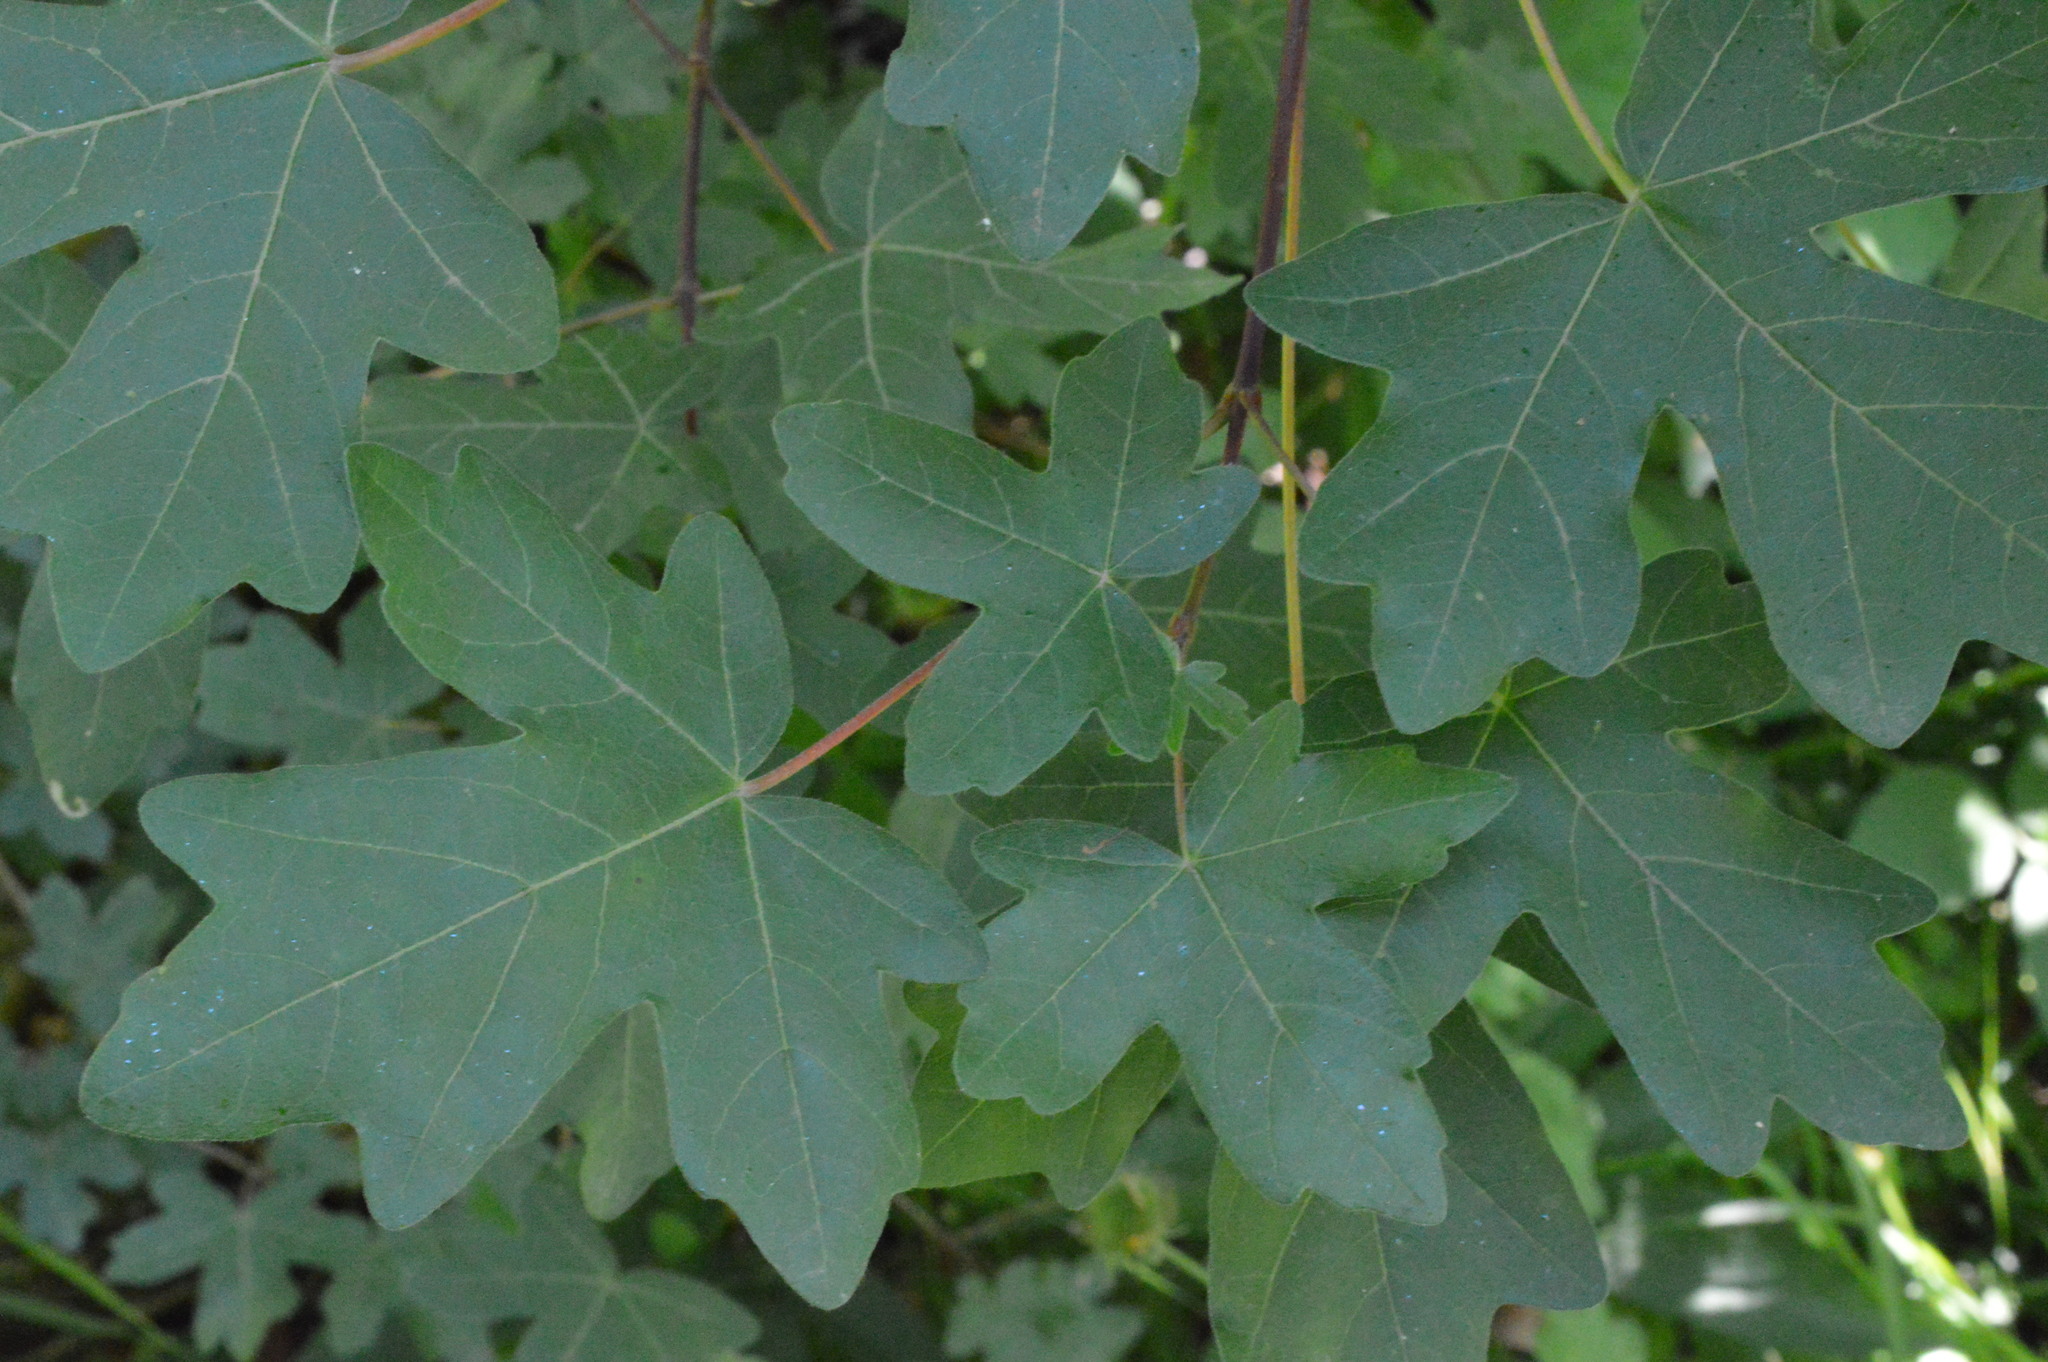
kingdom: Plantae
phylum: Tracheophyta
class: Magnoliopsida
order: Sapindales
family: Sapindaceae
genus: Acer
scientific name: Acer campestre
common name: Field maple
